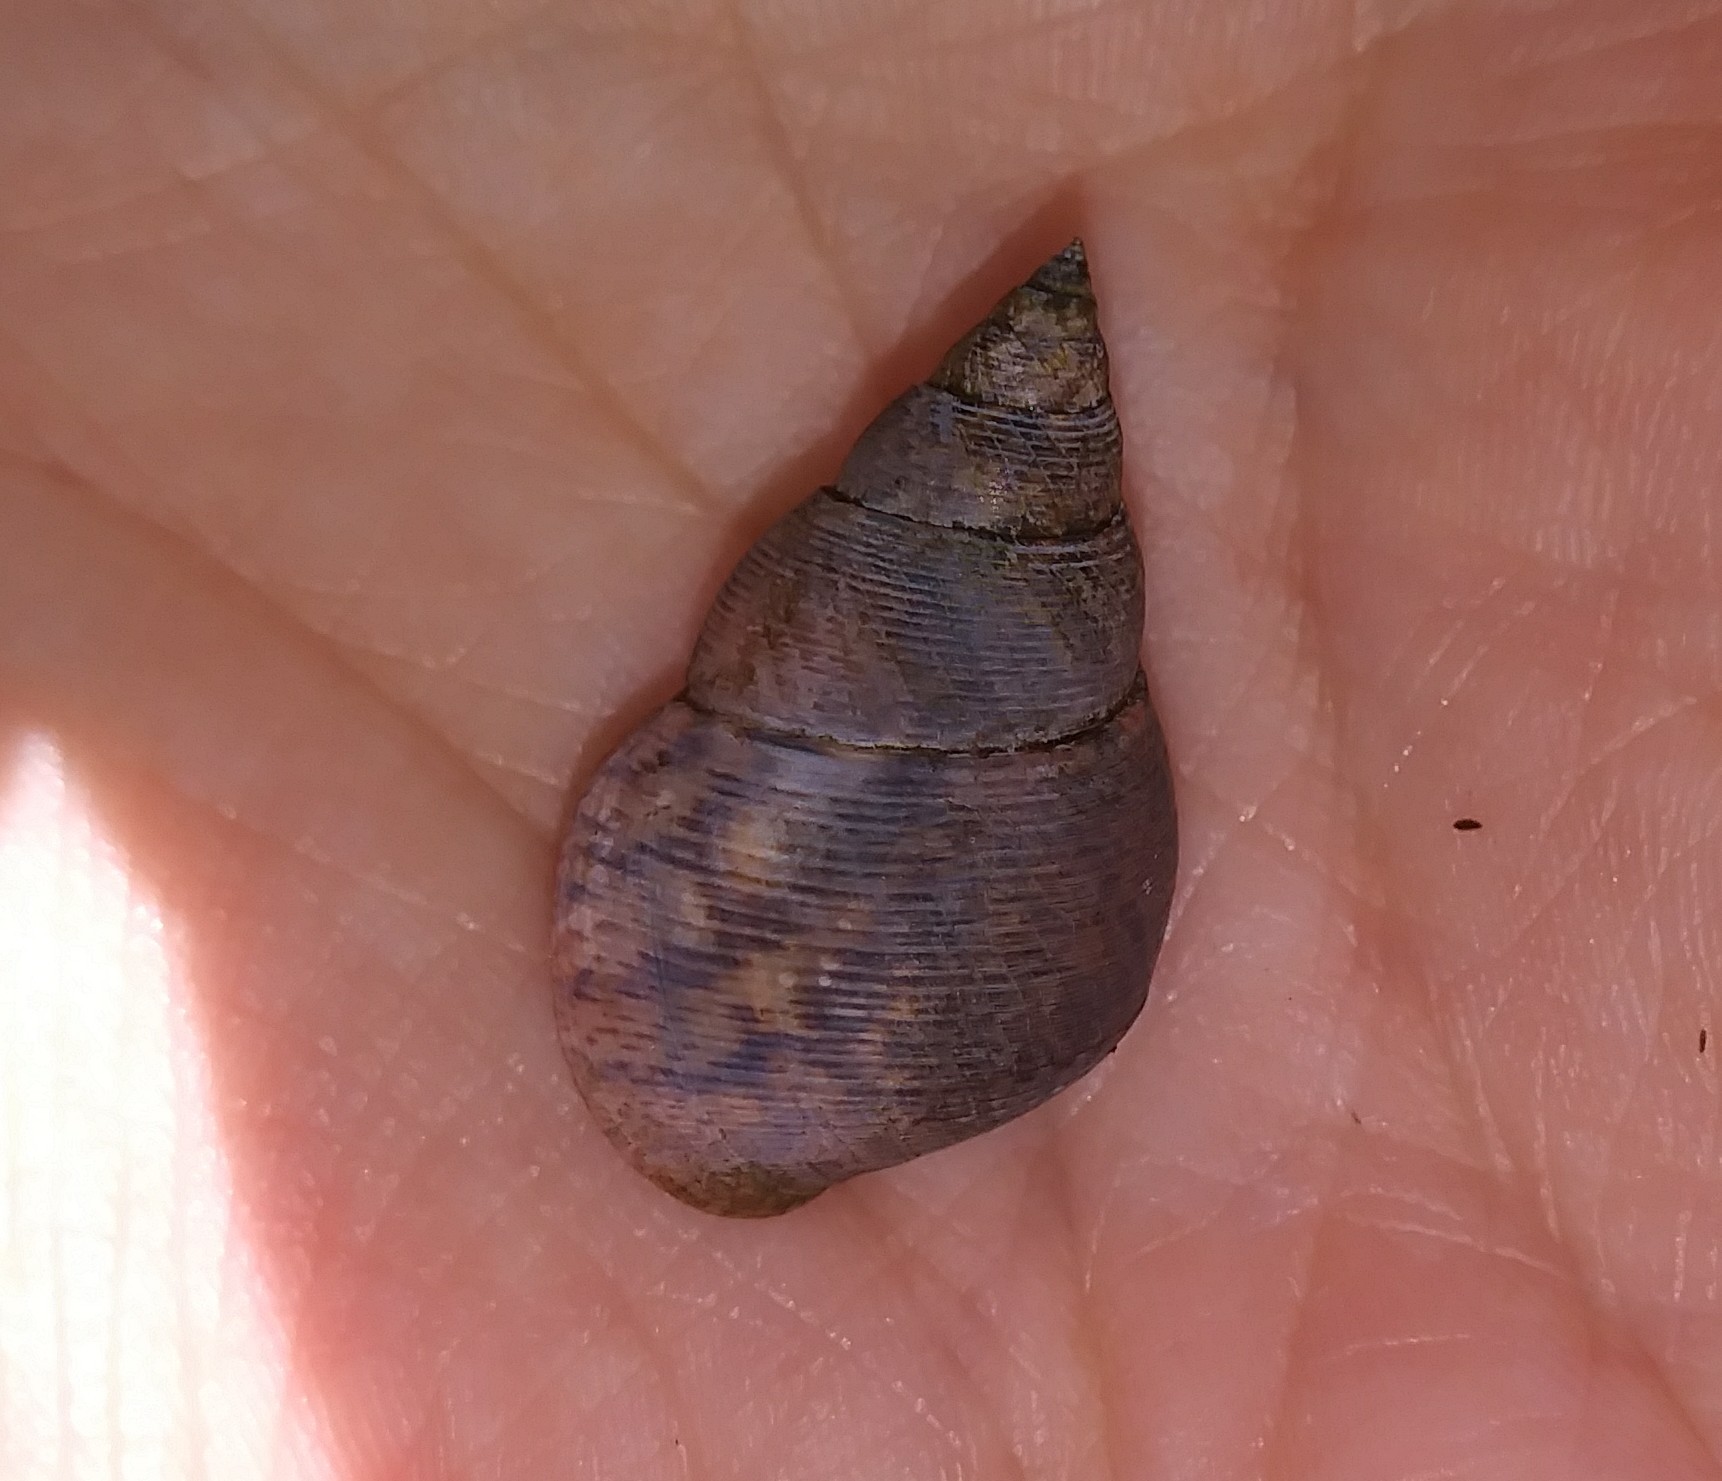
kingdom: Animalia
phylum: Mollusca
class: Gastropoda
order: Littorinimorpha
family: Littorinidae
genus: Littoraria
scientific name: Littoraria angulifera
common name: Mangrove periwinkle
